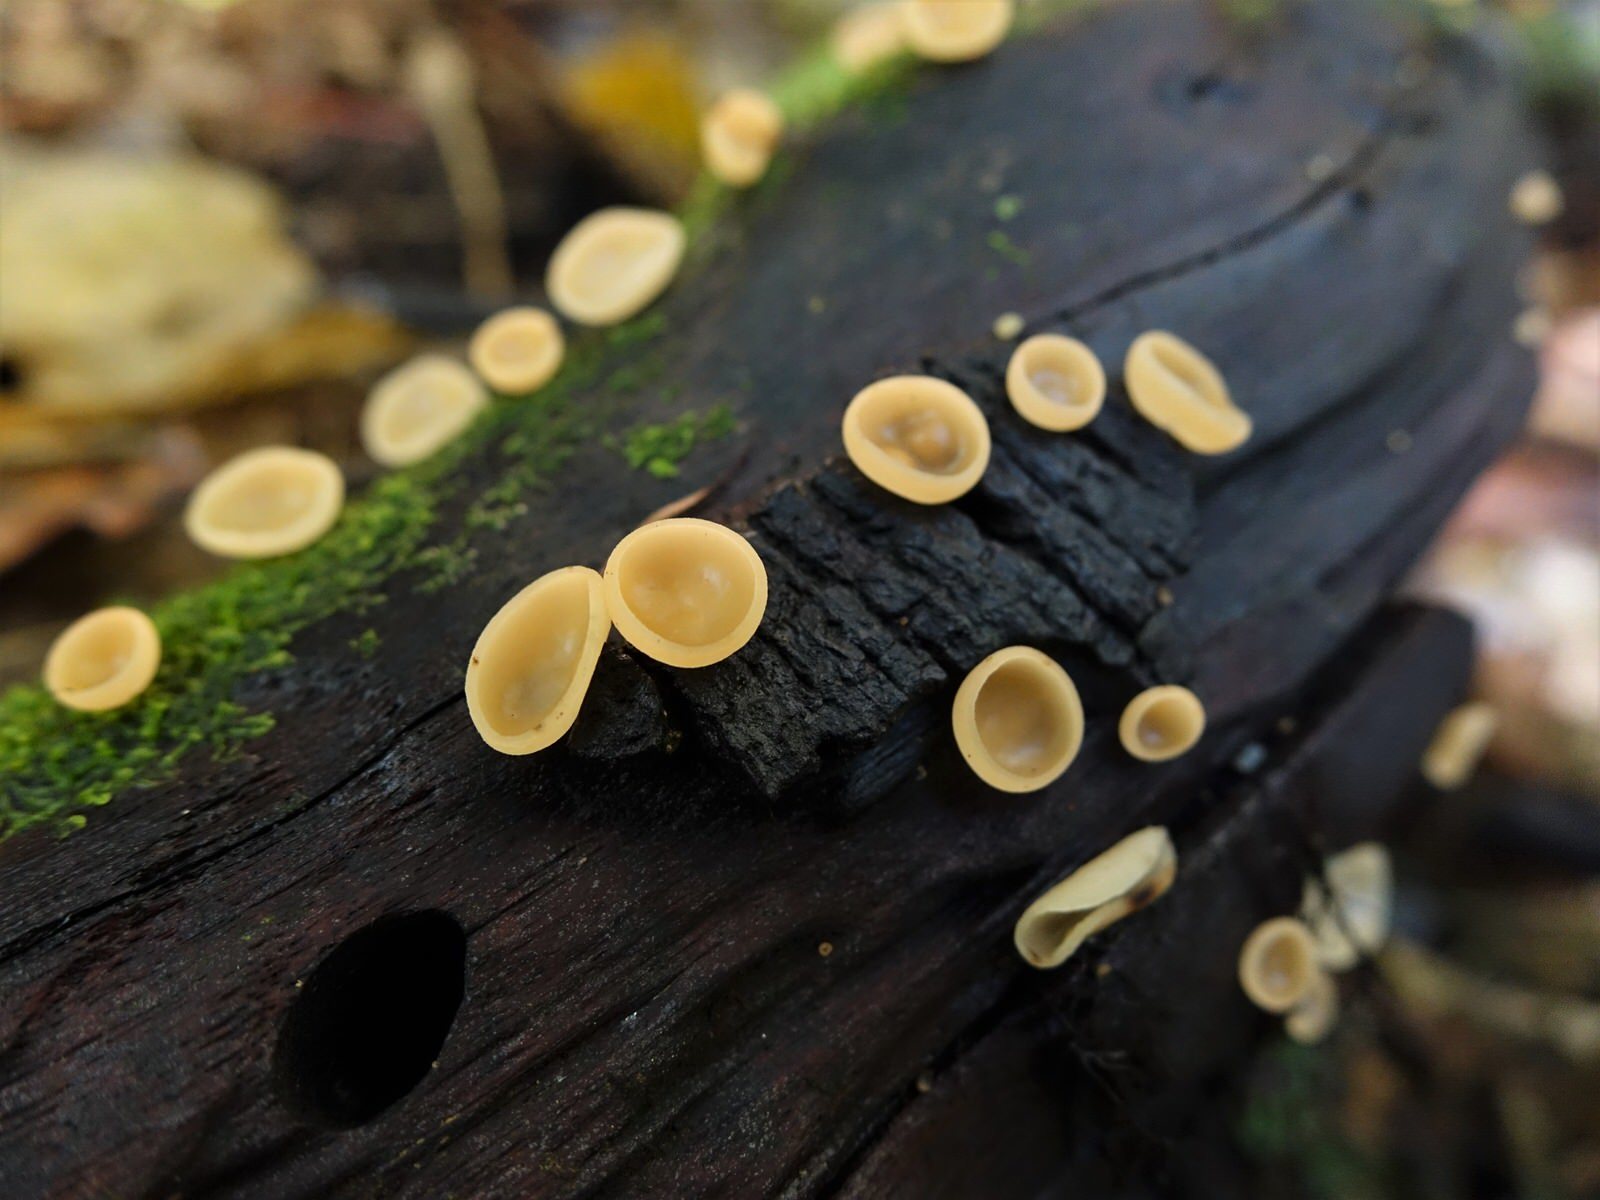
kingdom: Fungi
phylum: Ascomycota
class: Pezizomycetes
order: Pezizales
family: Sarcoscyphaceae
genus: Cookeina
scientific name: Cookeina colensoi
